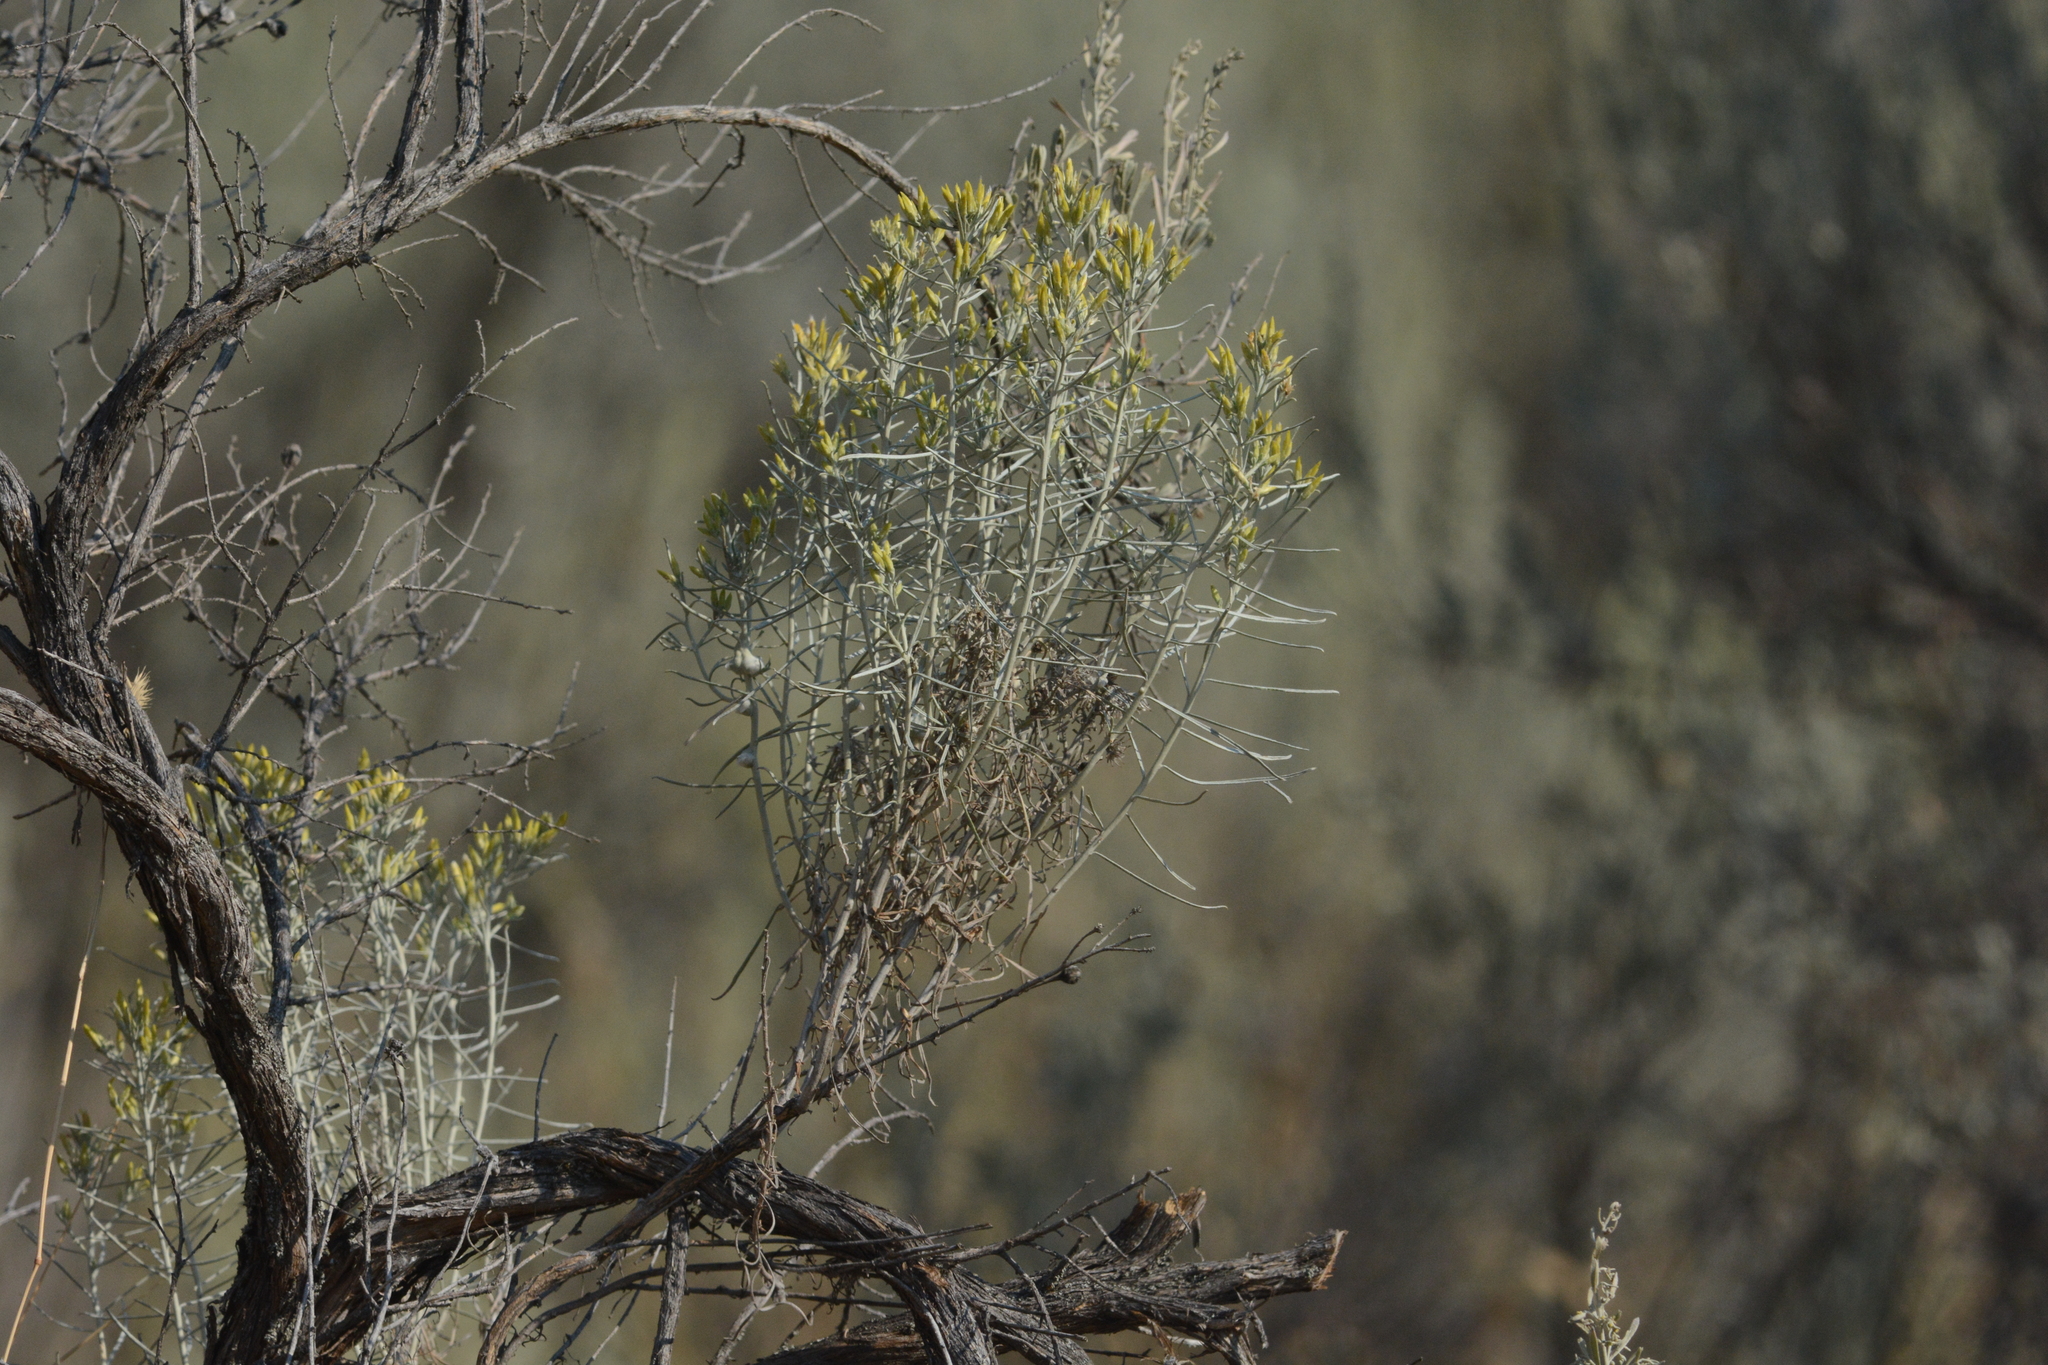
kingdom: Plantae
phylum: Tracheophyta
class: Magnoliopsida
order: Asterales
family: Asteraceae
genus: Ericameria
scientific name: Ericameria nauseosa
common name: Rubber rabbitbrush
